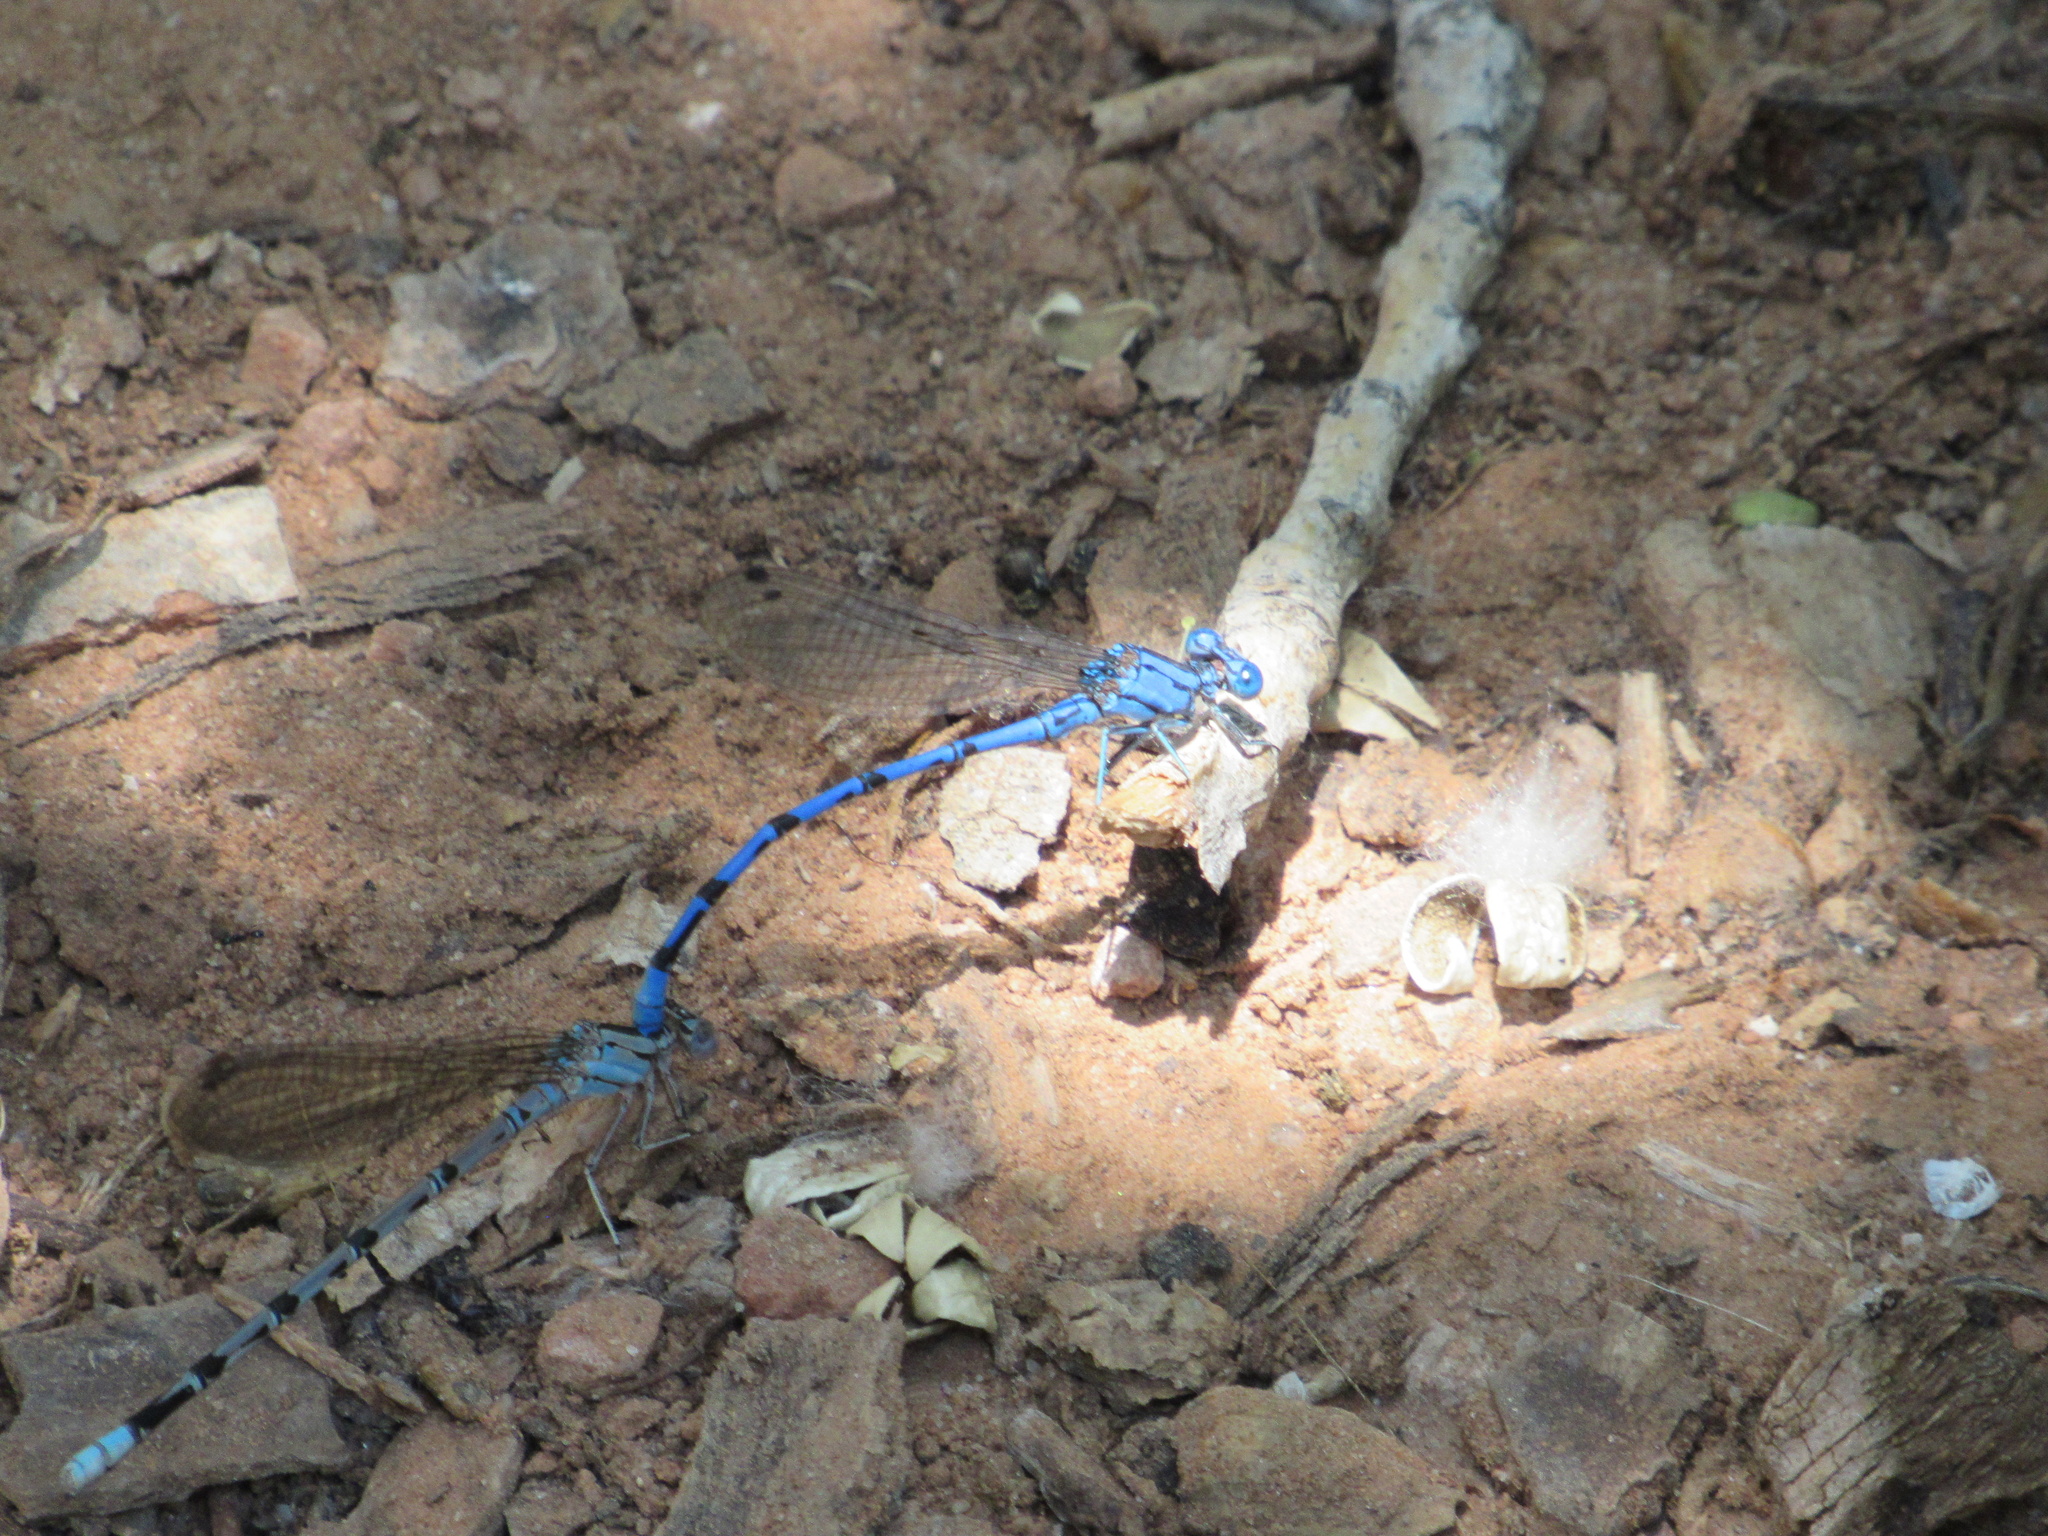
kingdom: Animalia
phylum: Arthropoda
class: Insecta
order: Odonata
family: Coenagrionidae
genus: Argia
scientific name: Argia funebris
